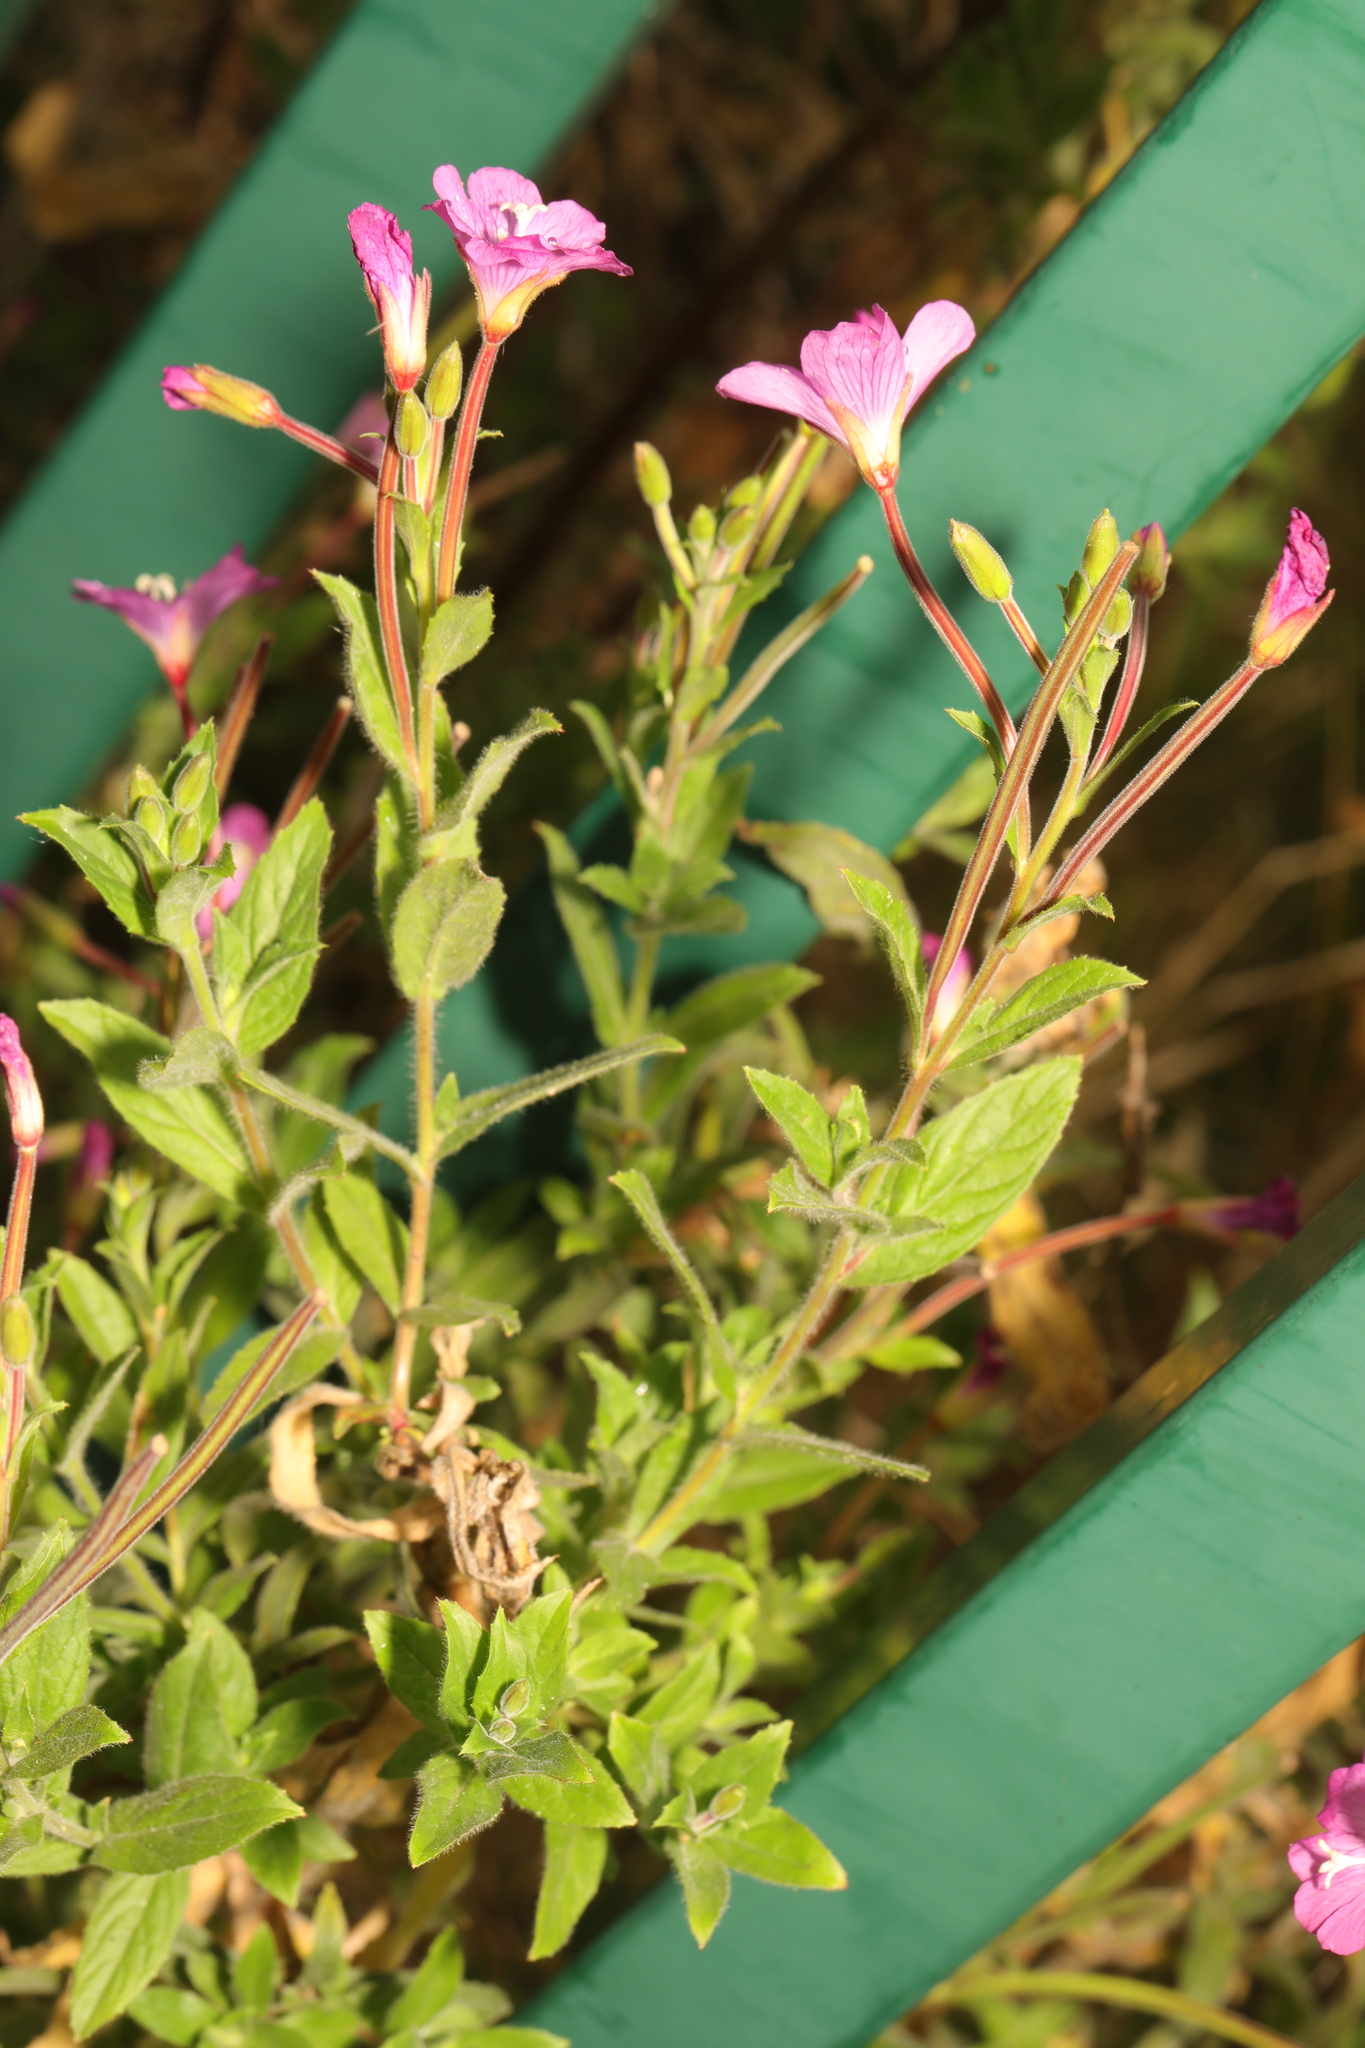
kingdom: Plantae
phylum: Tracheophyta
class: Magnoliopsida
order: Myrtales
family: Onagraceae
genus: Epilobium
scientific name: Epilobium hirsutum
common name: Great willowherb
